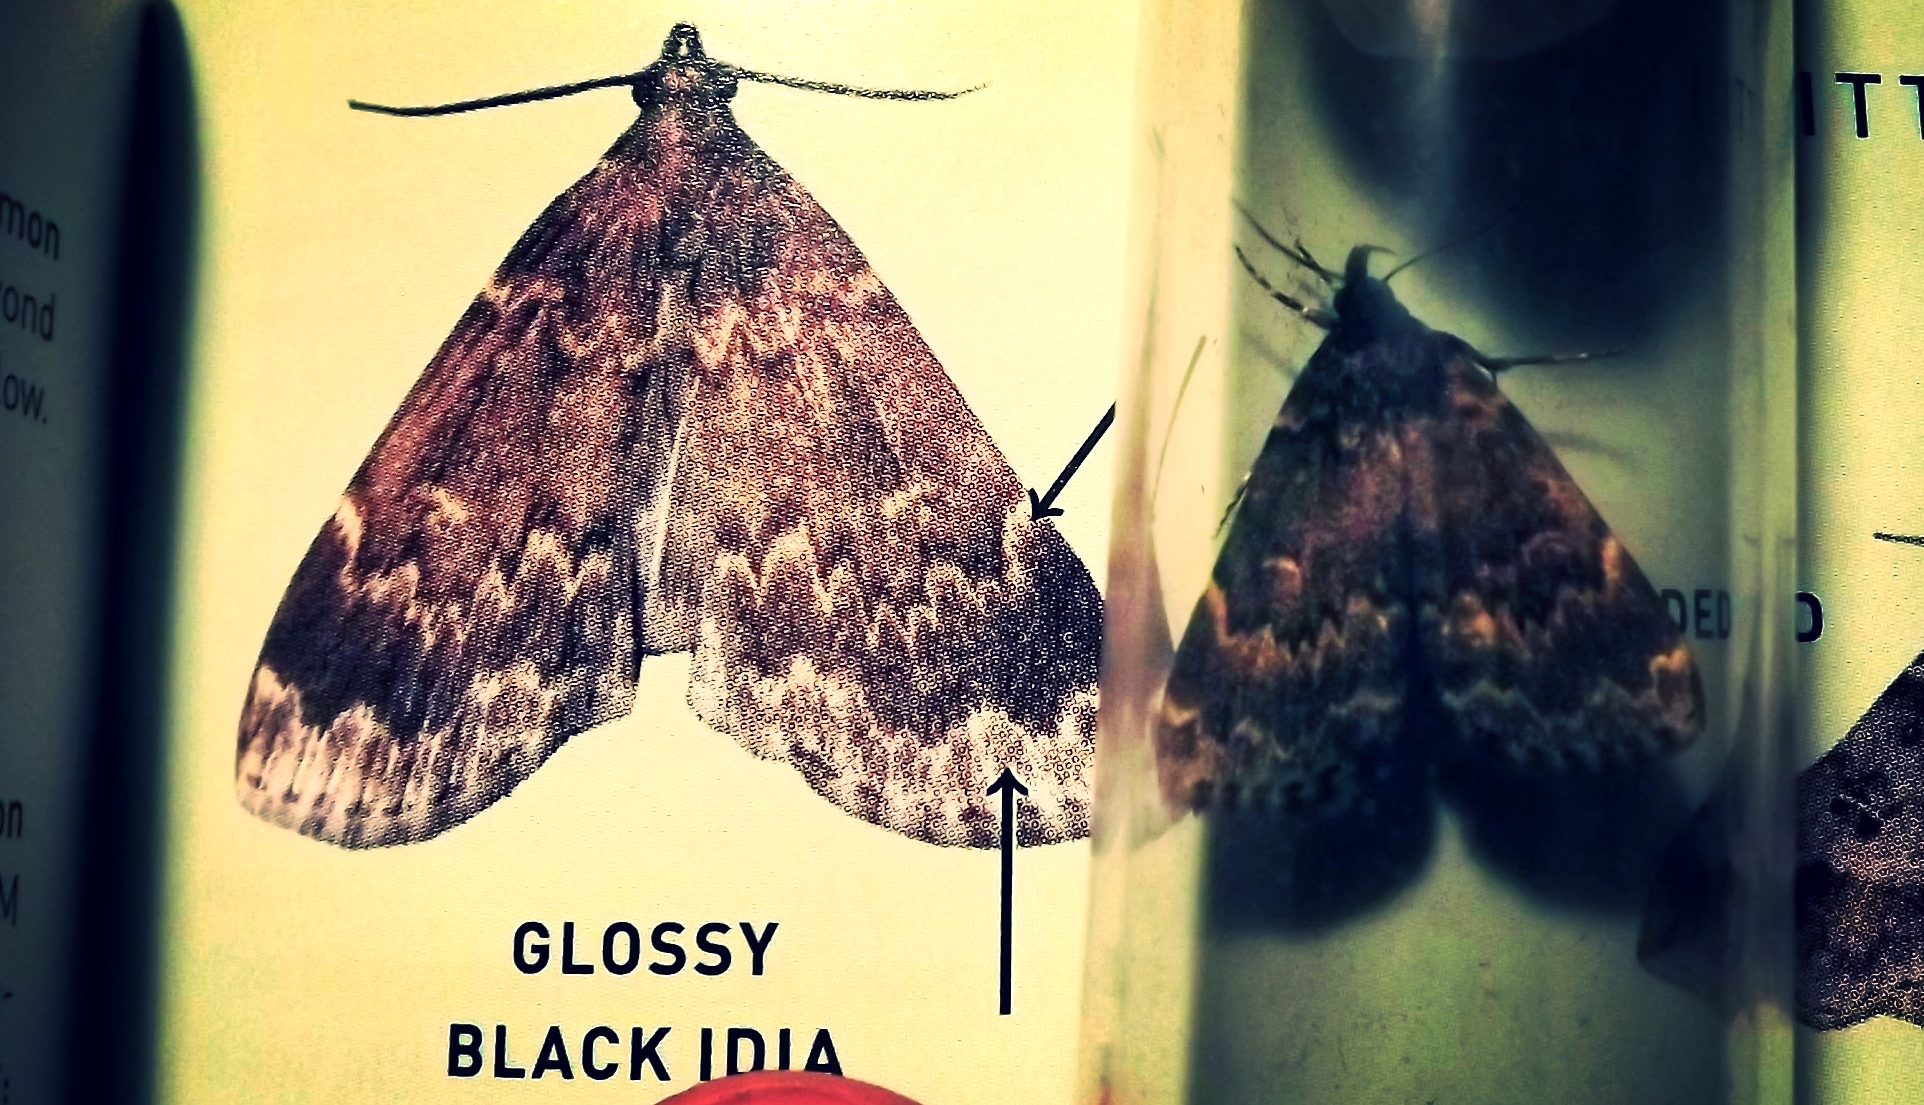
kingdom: Animalia
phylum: Arthropoda
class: Insecta
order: Lepidoptera
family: Erebidae
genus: Idia
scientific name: Idia lubricalis
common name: Twin-striped tabby
